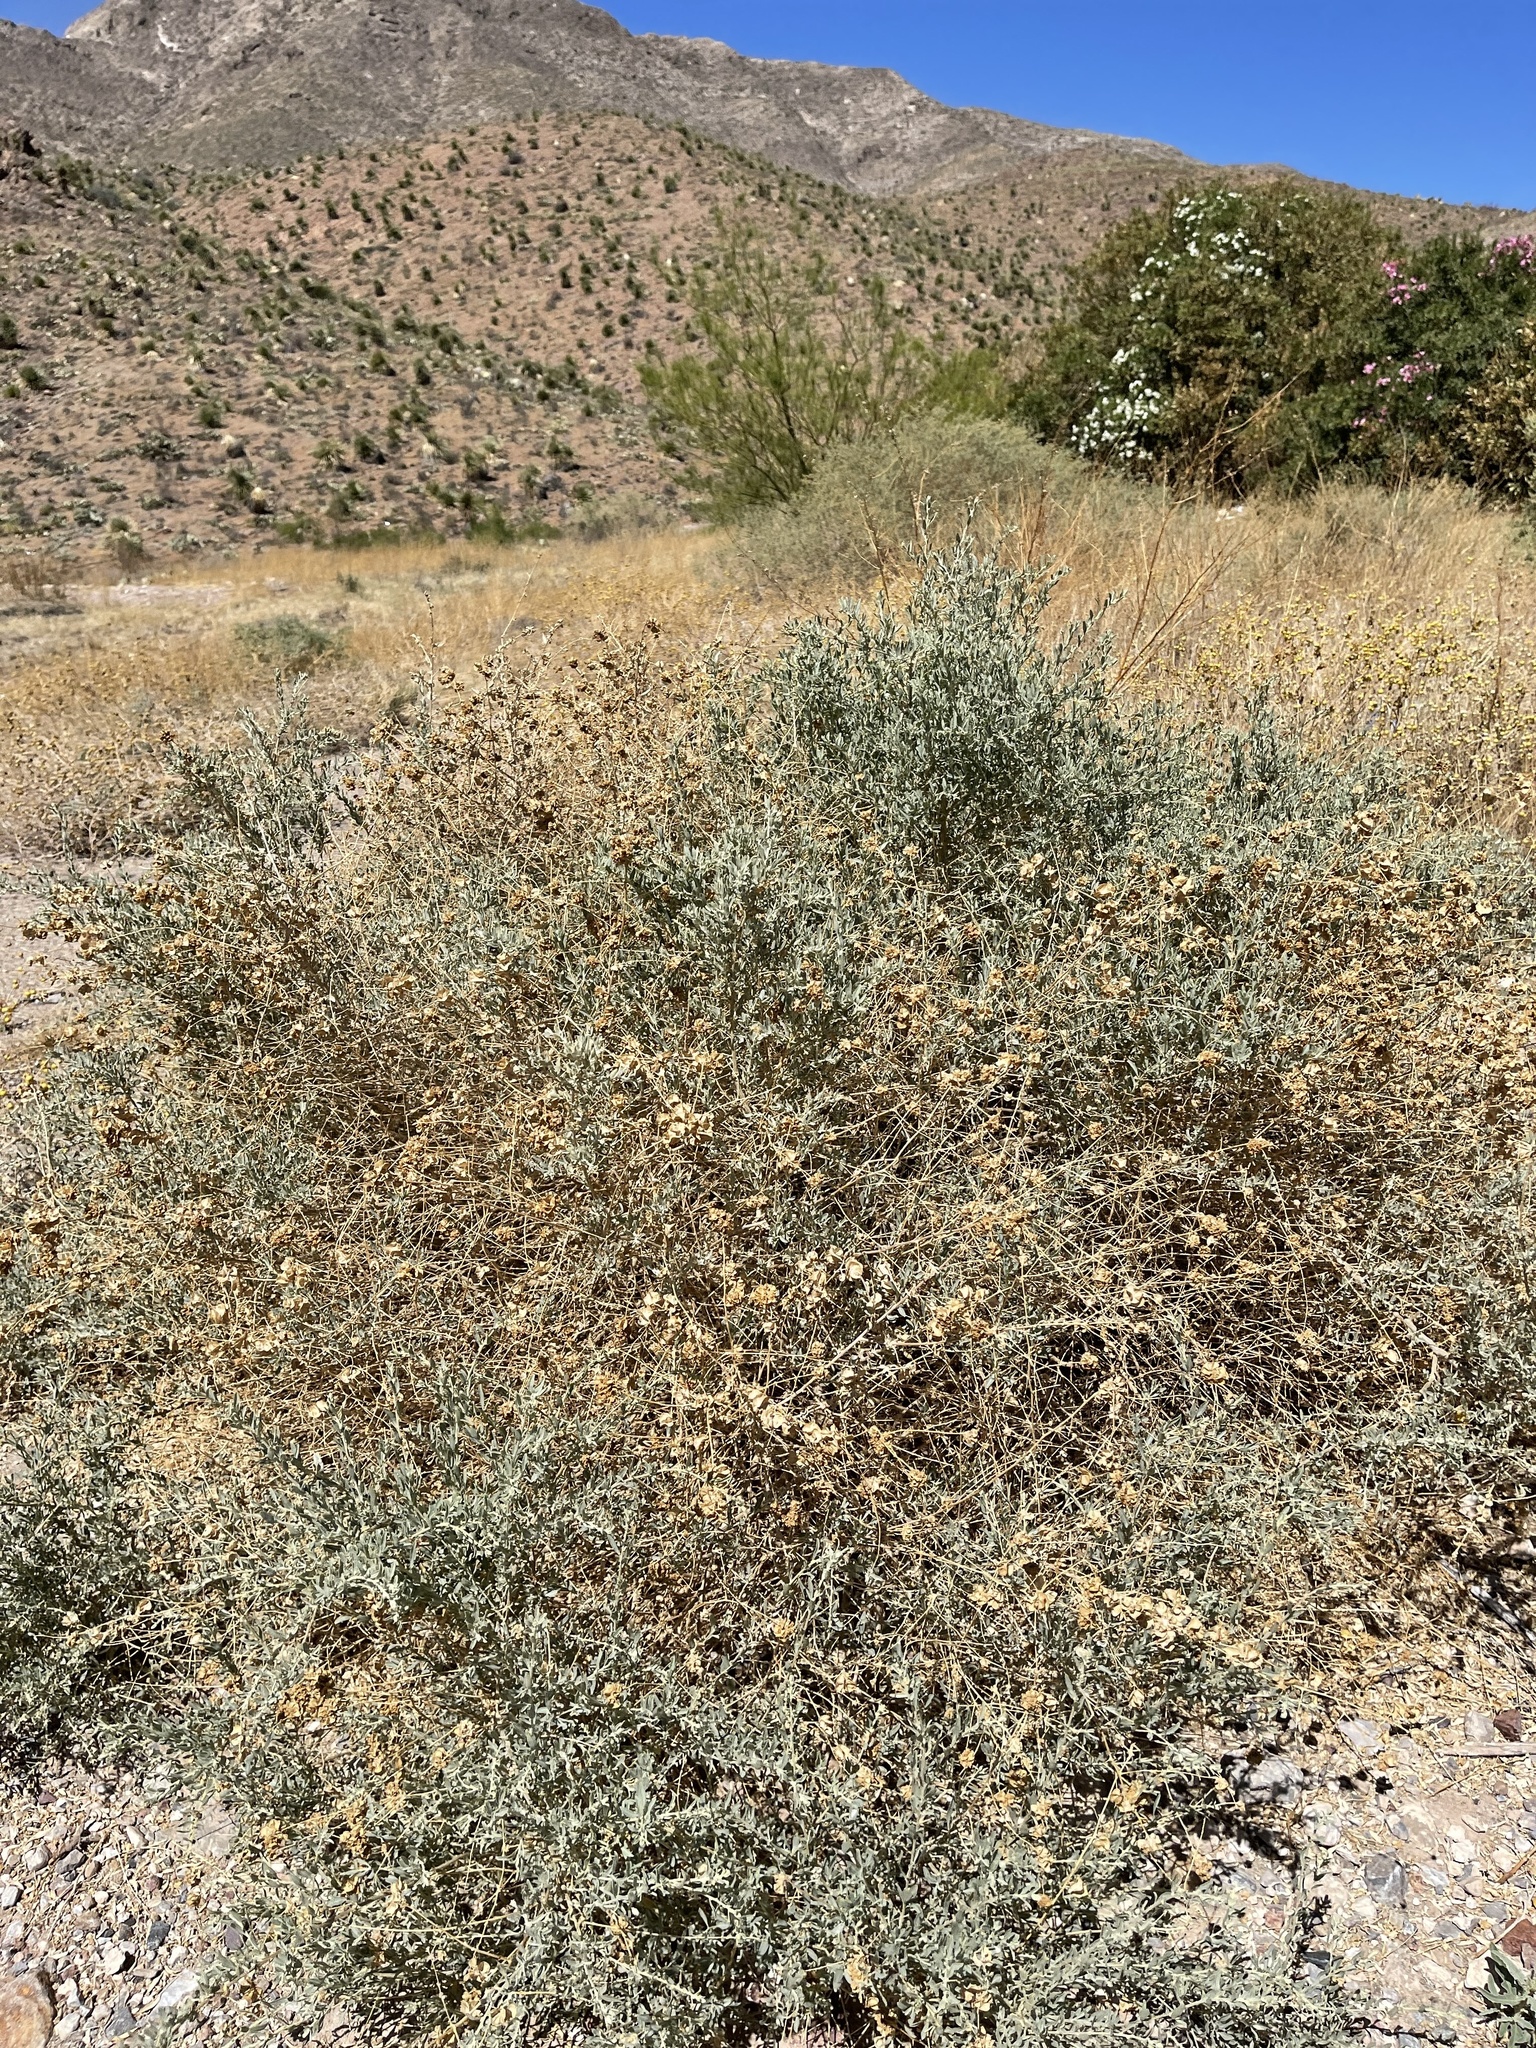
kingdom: Plantae
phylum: Tracheophyta
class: Magnoliopsida
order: Caryophyllales
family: Amaranthaceae
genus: Atriplex
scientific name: Atriplex canescens
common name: Four-wing saltbush
